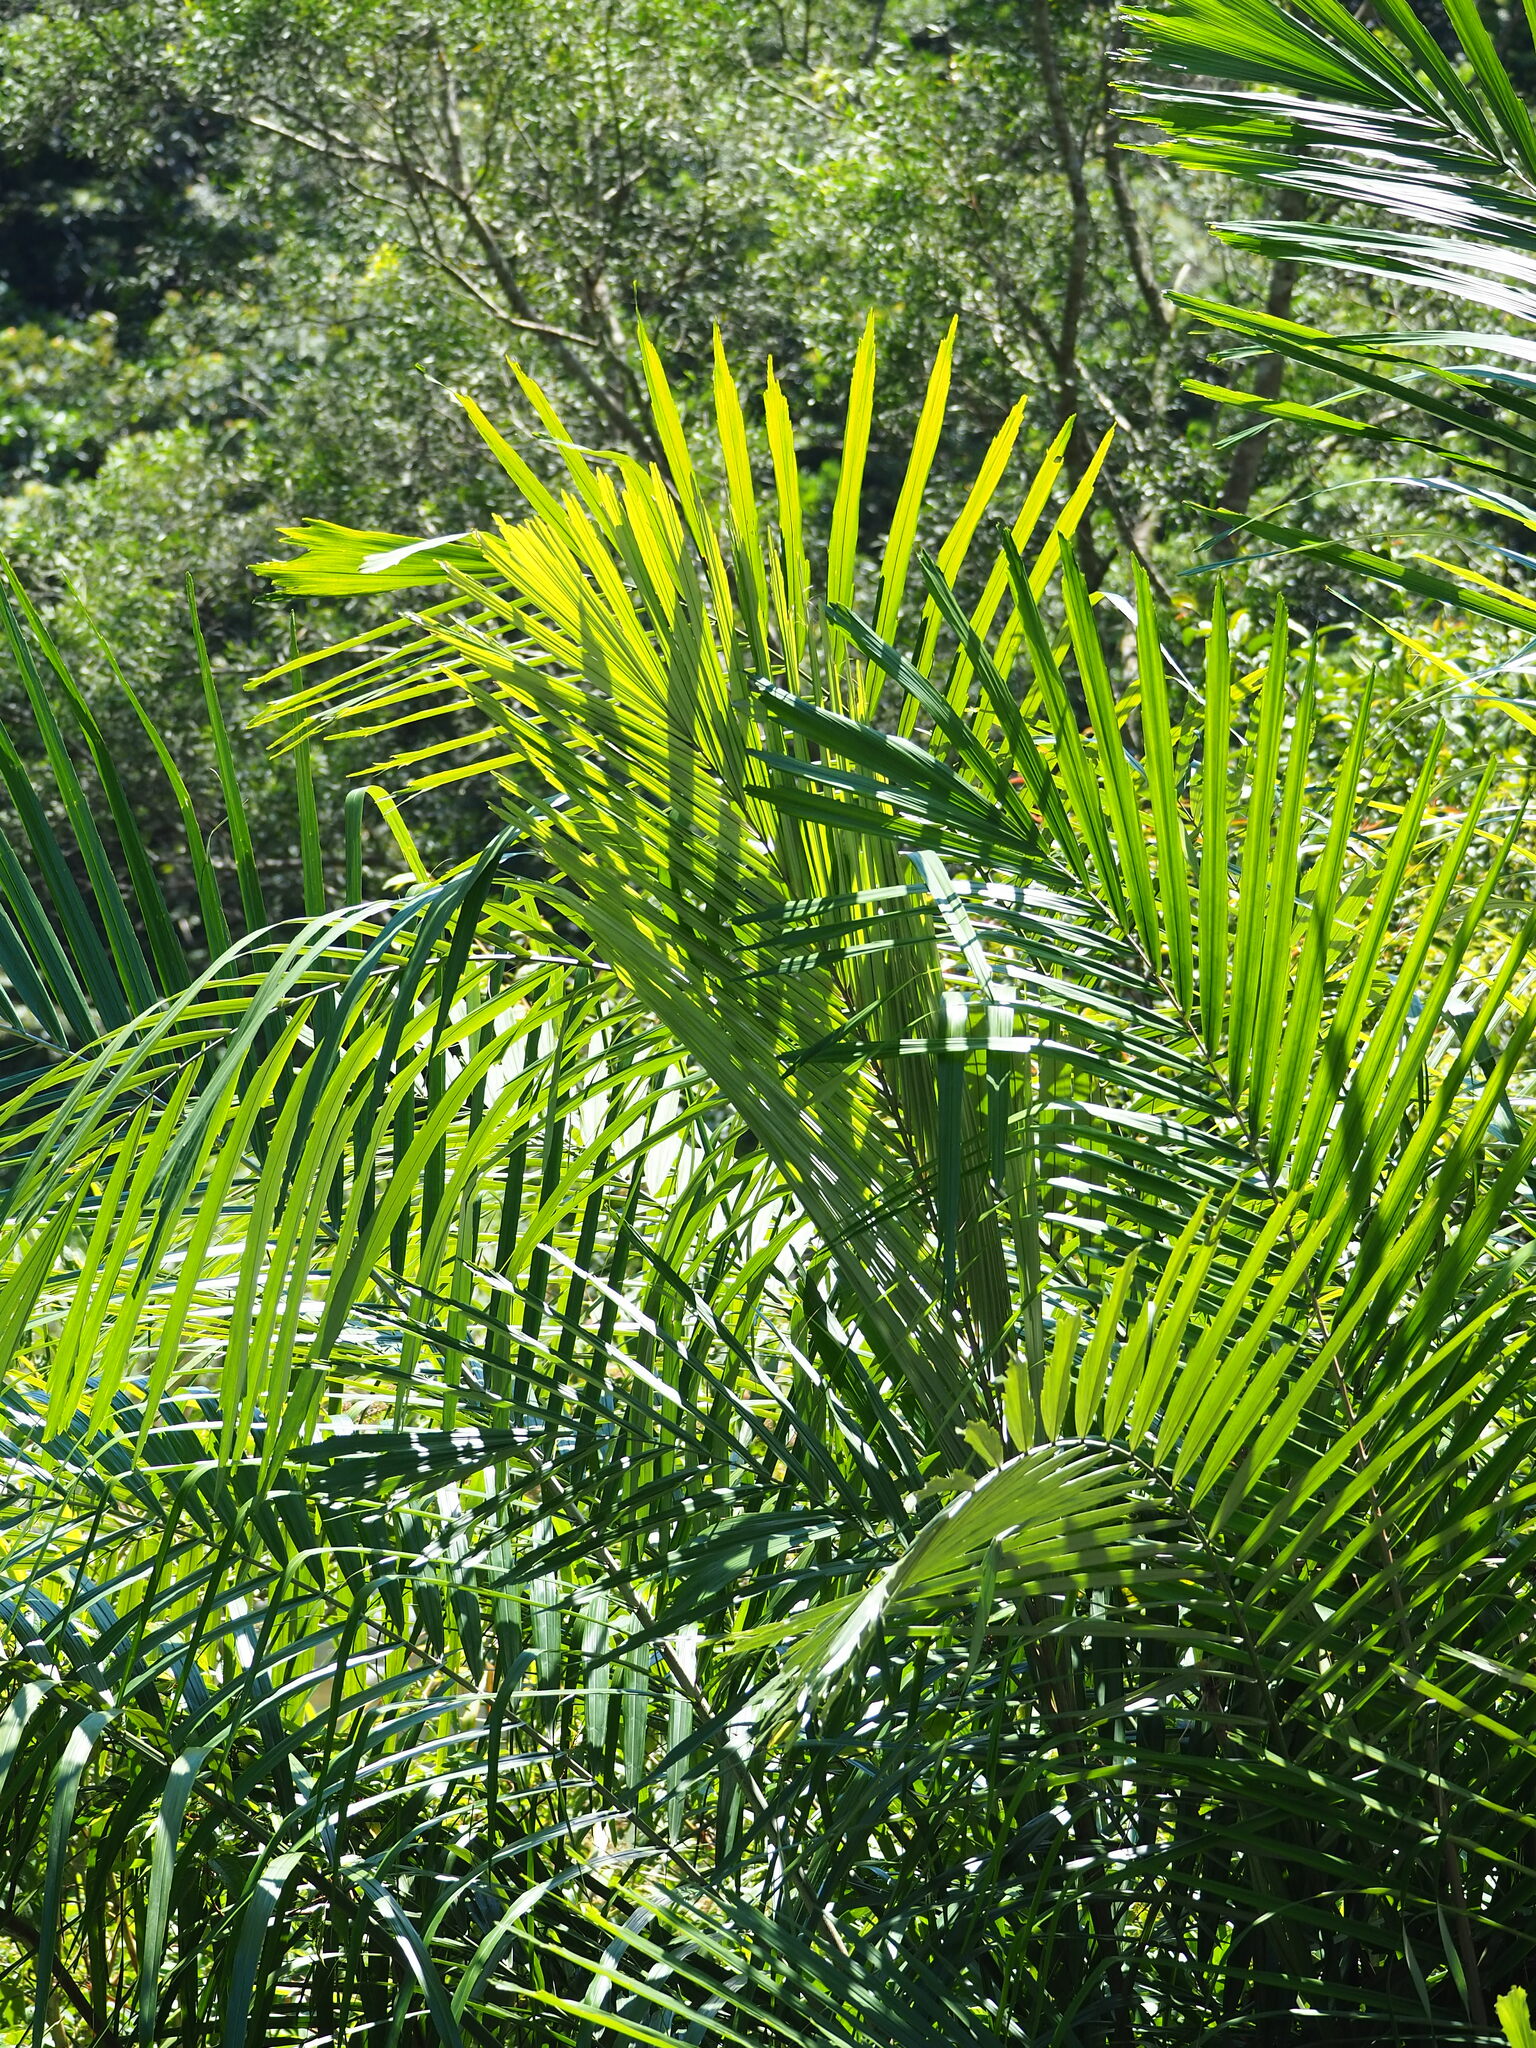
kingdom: Plantae
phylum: Tracheophyta
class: Liliopsida
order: Arecales
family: Arecaceae
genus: Arenga
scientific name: Arenga engleri
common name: Formosan sugar palm
